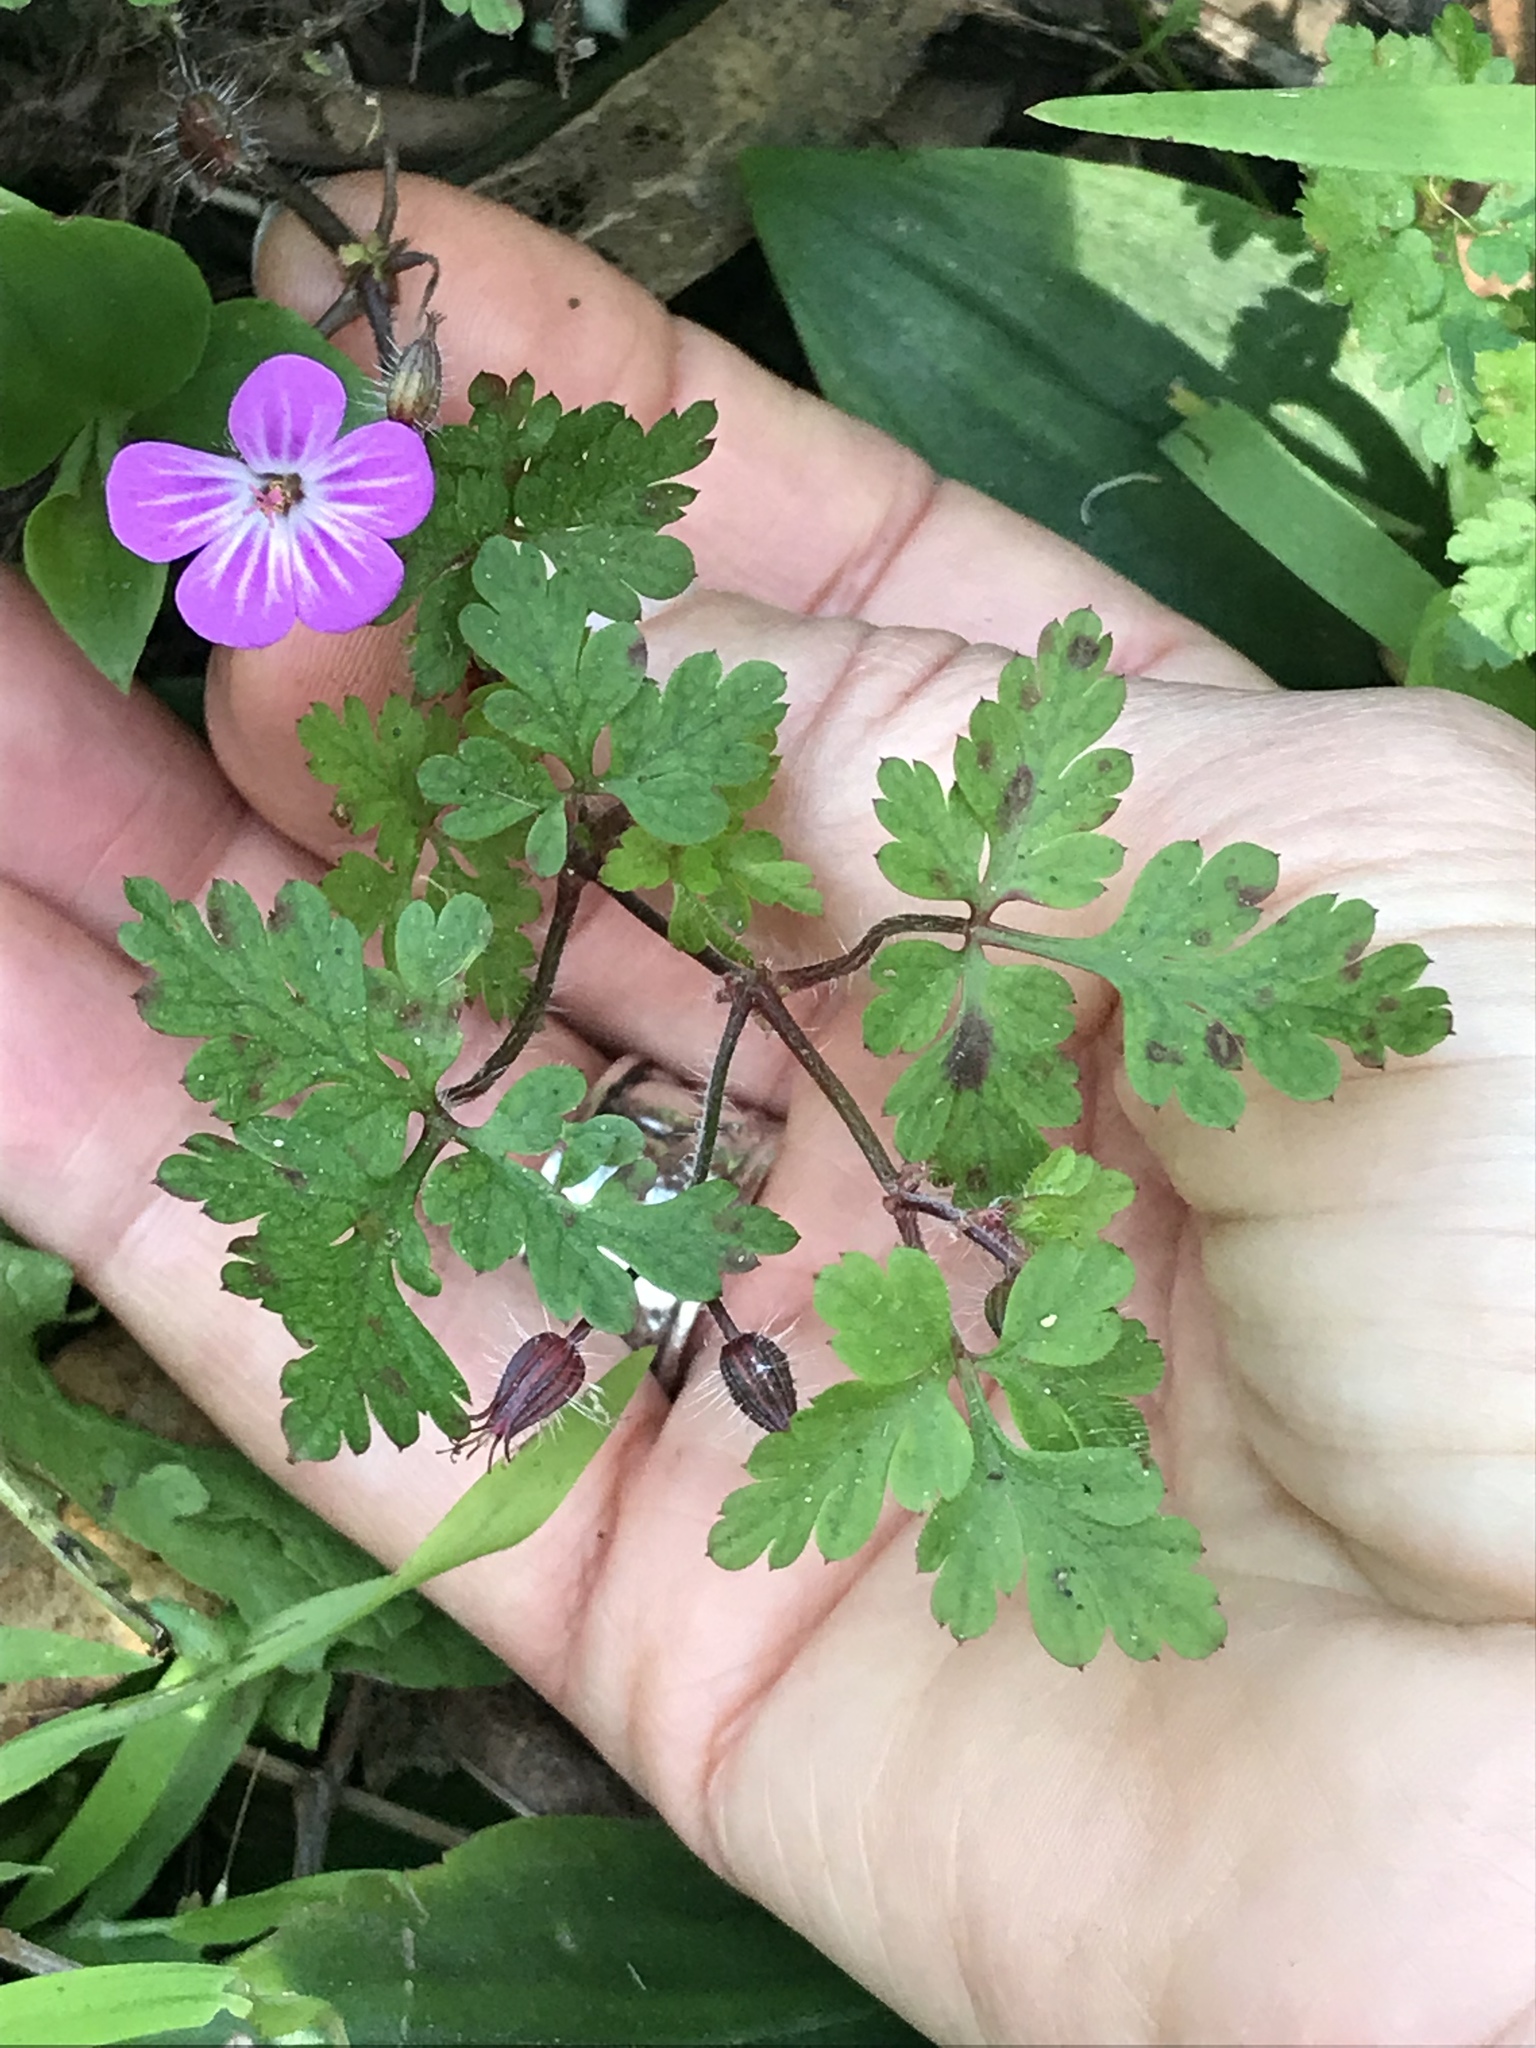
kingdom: Plantae
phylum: Tracheophyta
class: Magnoliopsida
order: Geraniales
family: Geraniaceae
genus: Geranium
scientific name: Geranium robertianum
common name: Herb-robert
